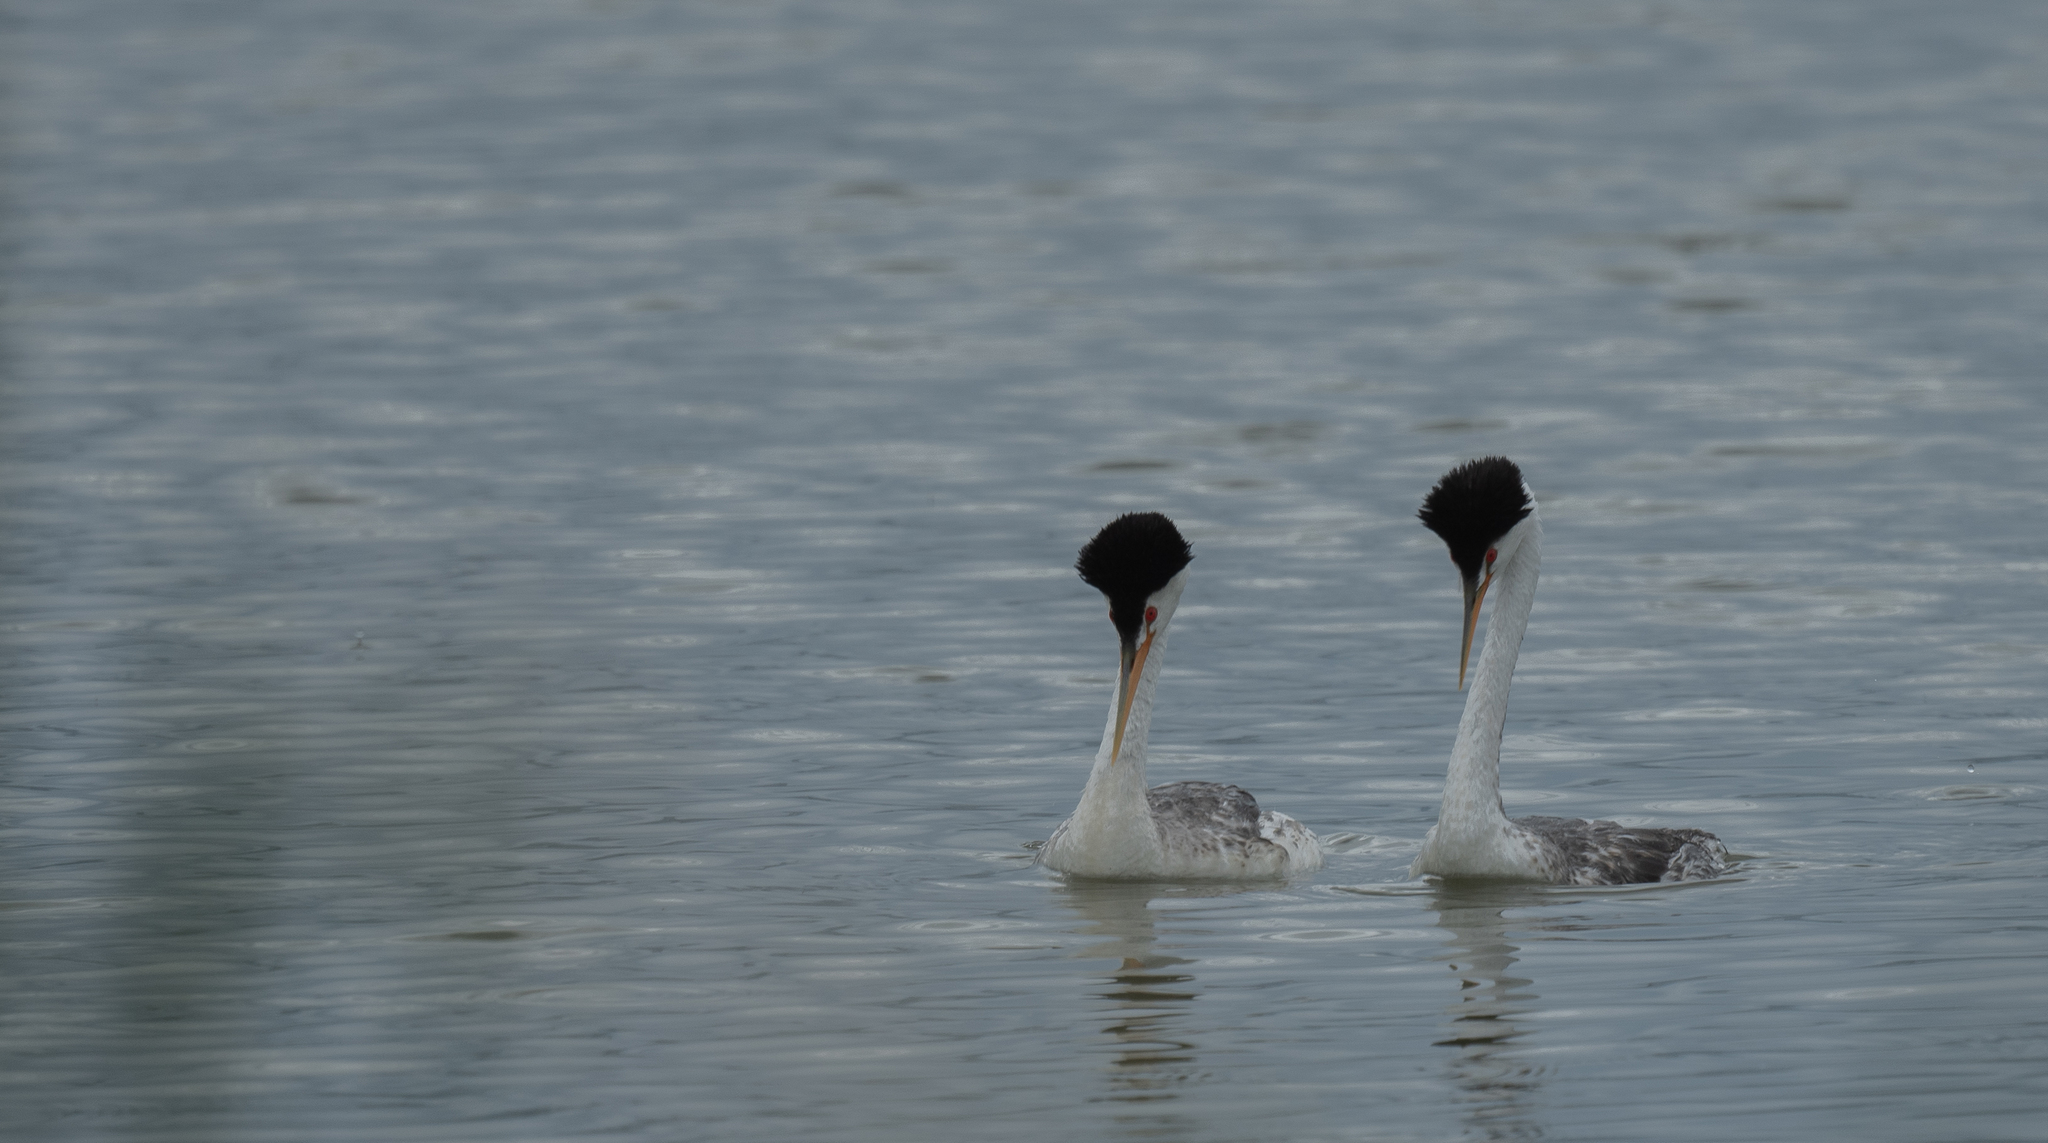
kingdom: Animalia
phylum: Chordata
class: Aves
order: Podicipediformes
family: Podicipedidae
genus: Aechmophorus
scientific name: Aechmophorus clarkii
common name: Clark's grebe
